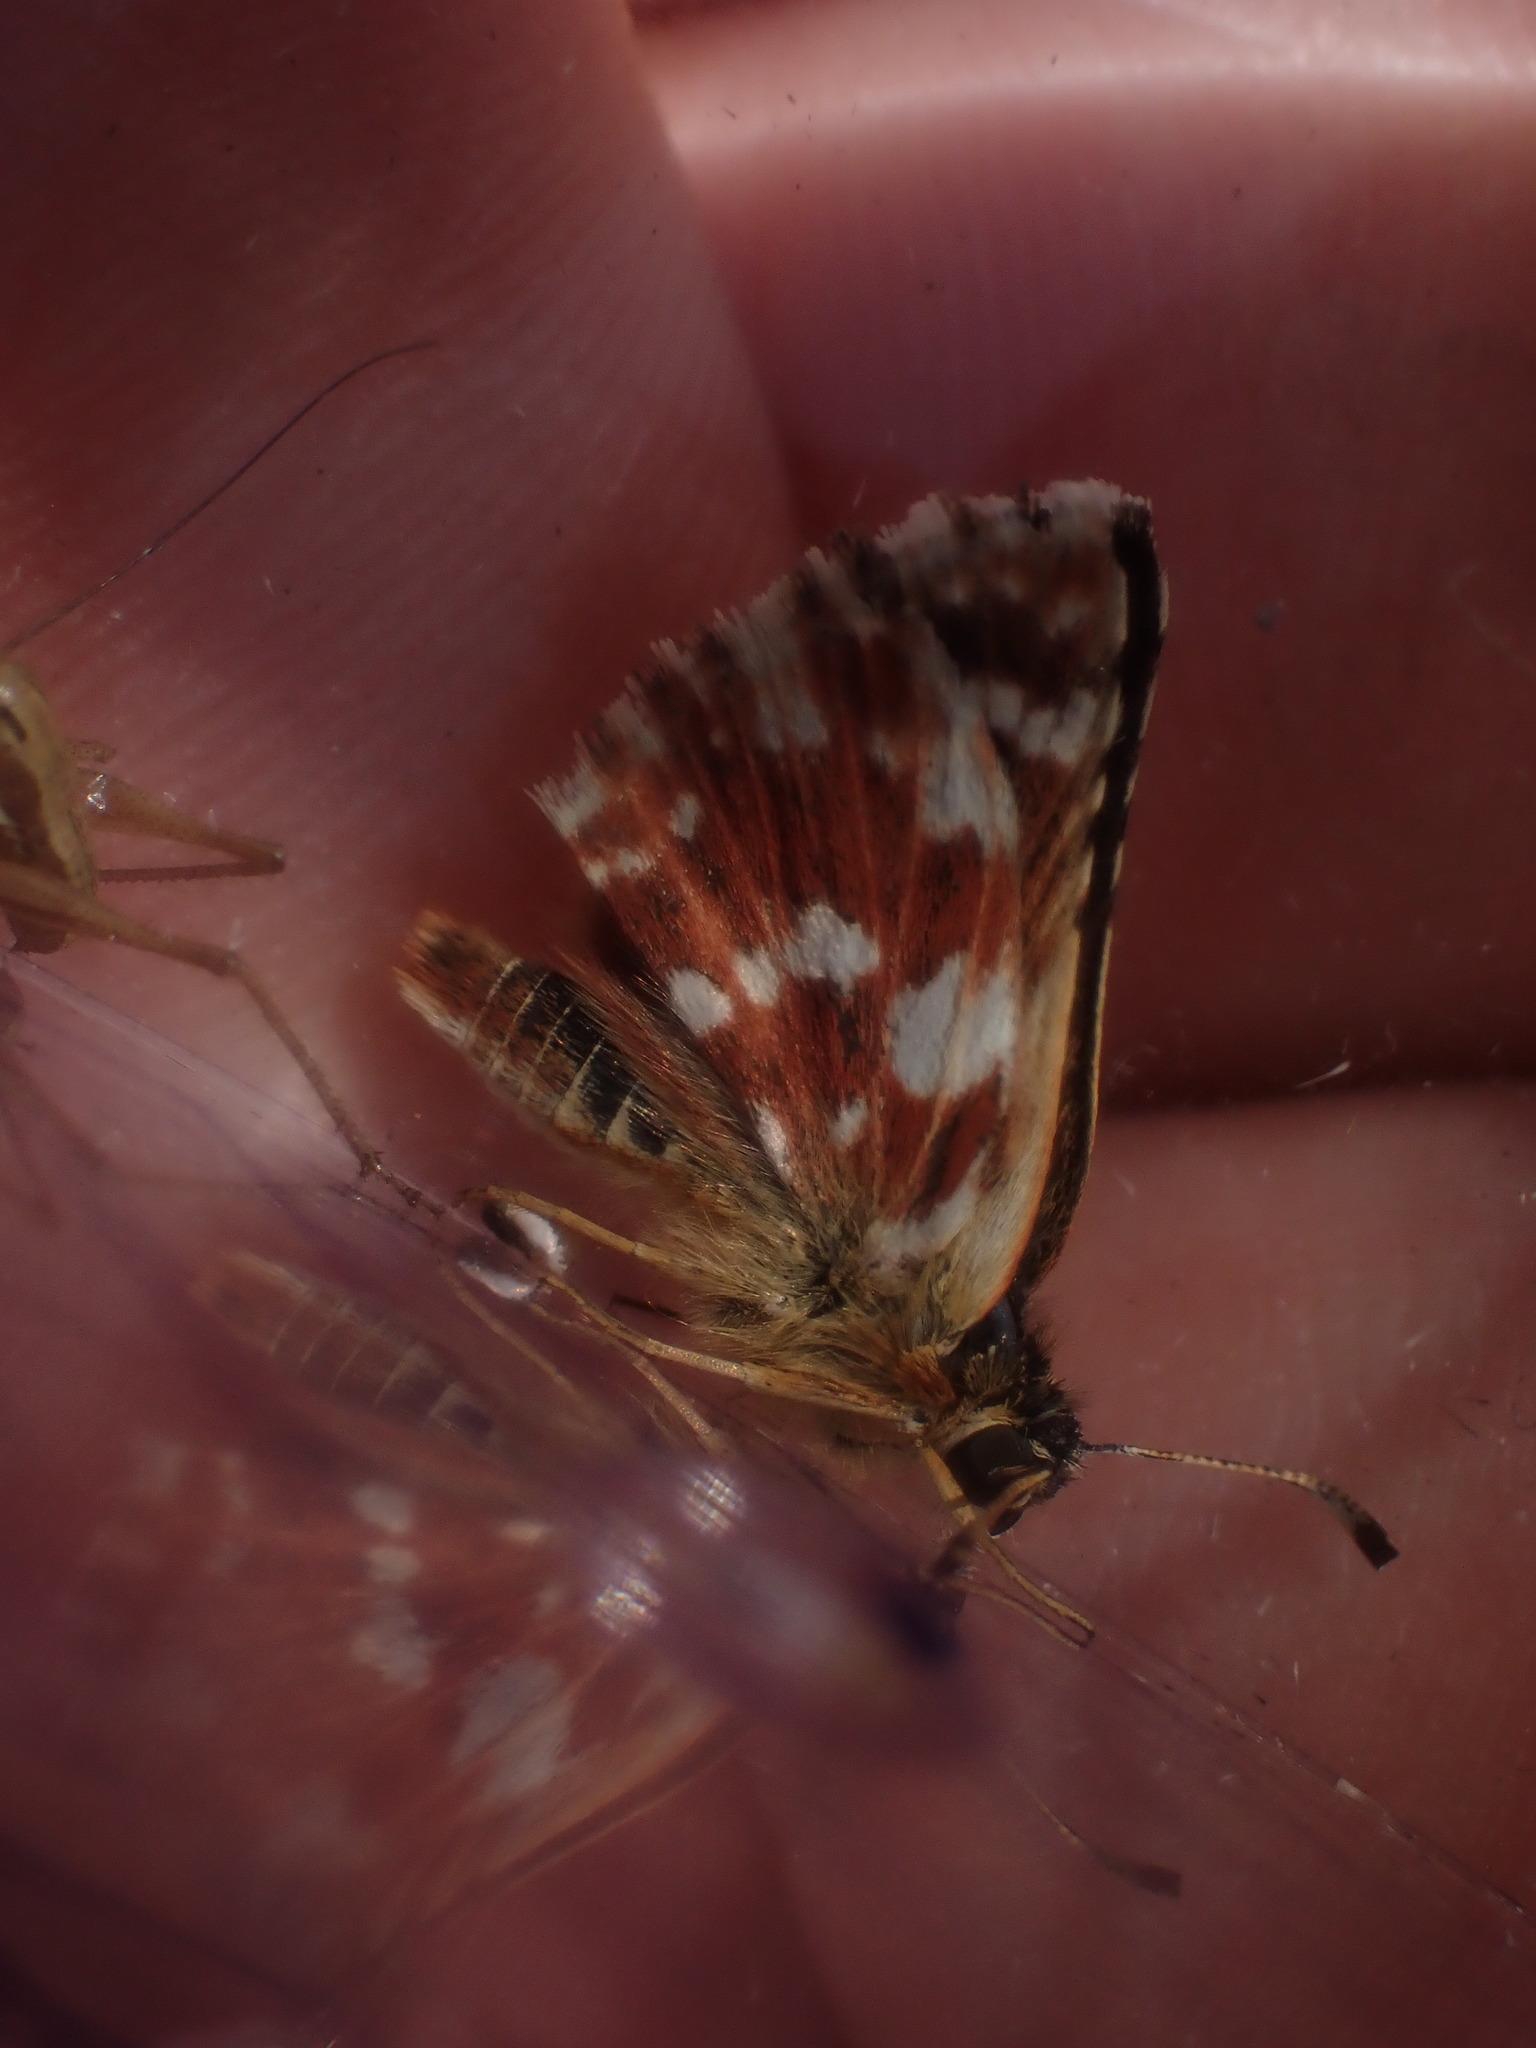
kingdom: Animalia
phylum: Arthropoda
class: Insecta
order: Lepidoptera
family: Hesperiidae
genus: Spialia
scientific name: Spialia sertorius
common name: Red underwing skipper
